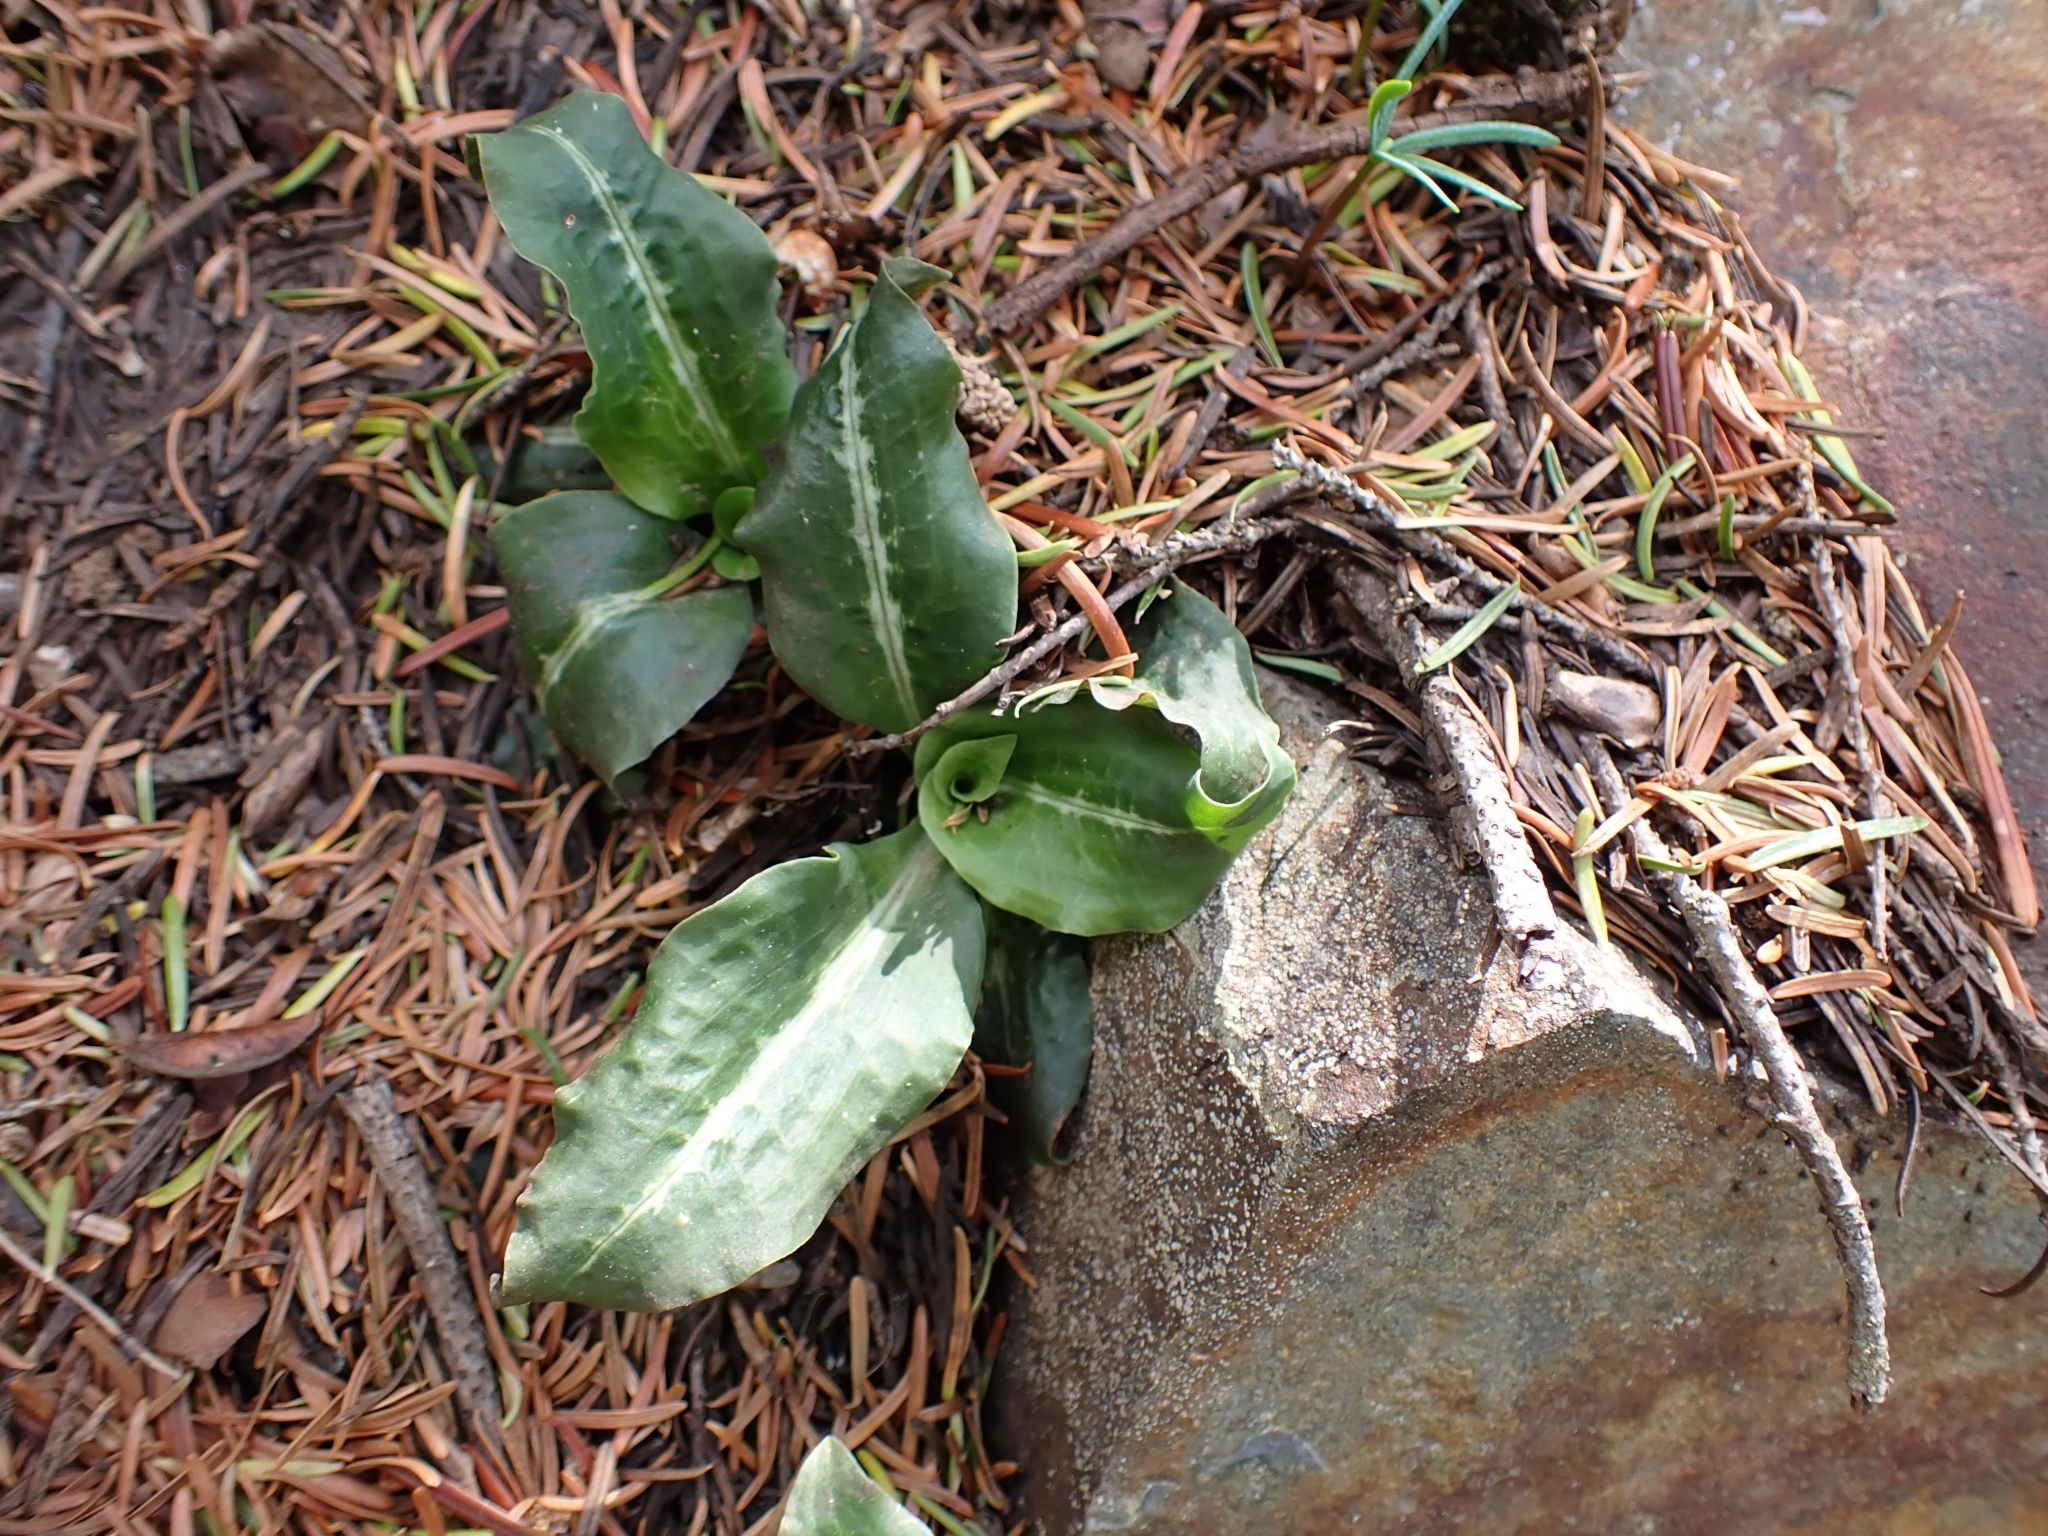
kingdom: Plantae
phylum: Tracheophyta
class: Liliopsida
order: Asparagales
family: Orchidaceae
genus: Goodyera
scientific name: Goodyera oblongifolia
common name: Giant rattlesnake-plantain
